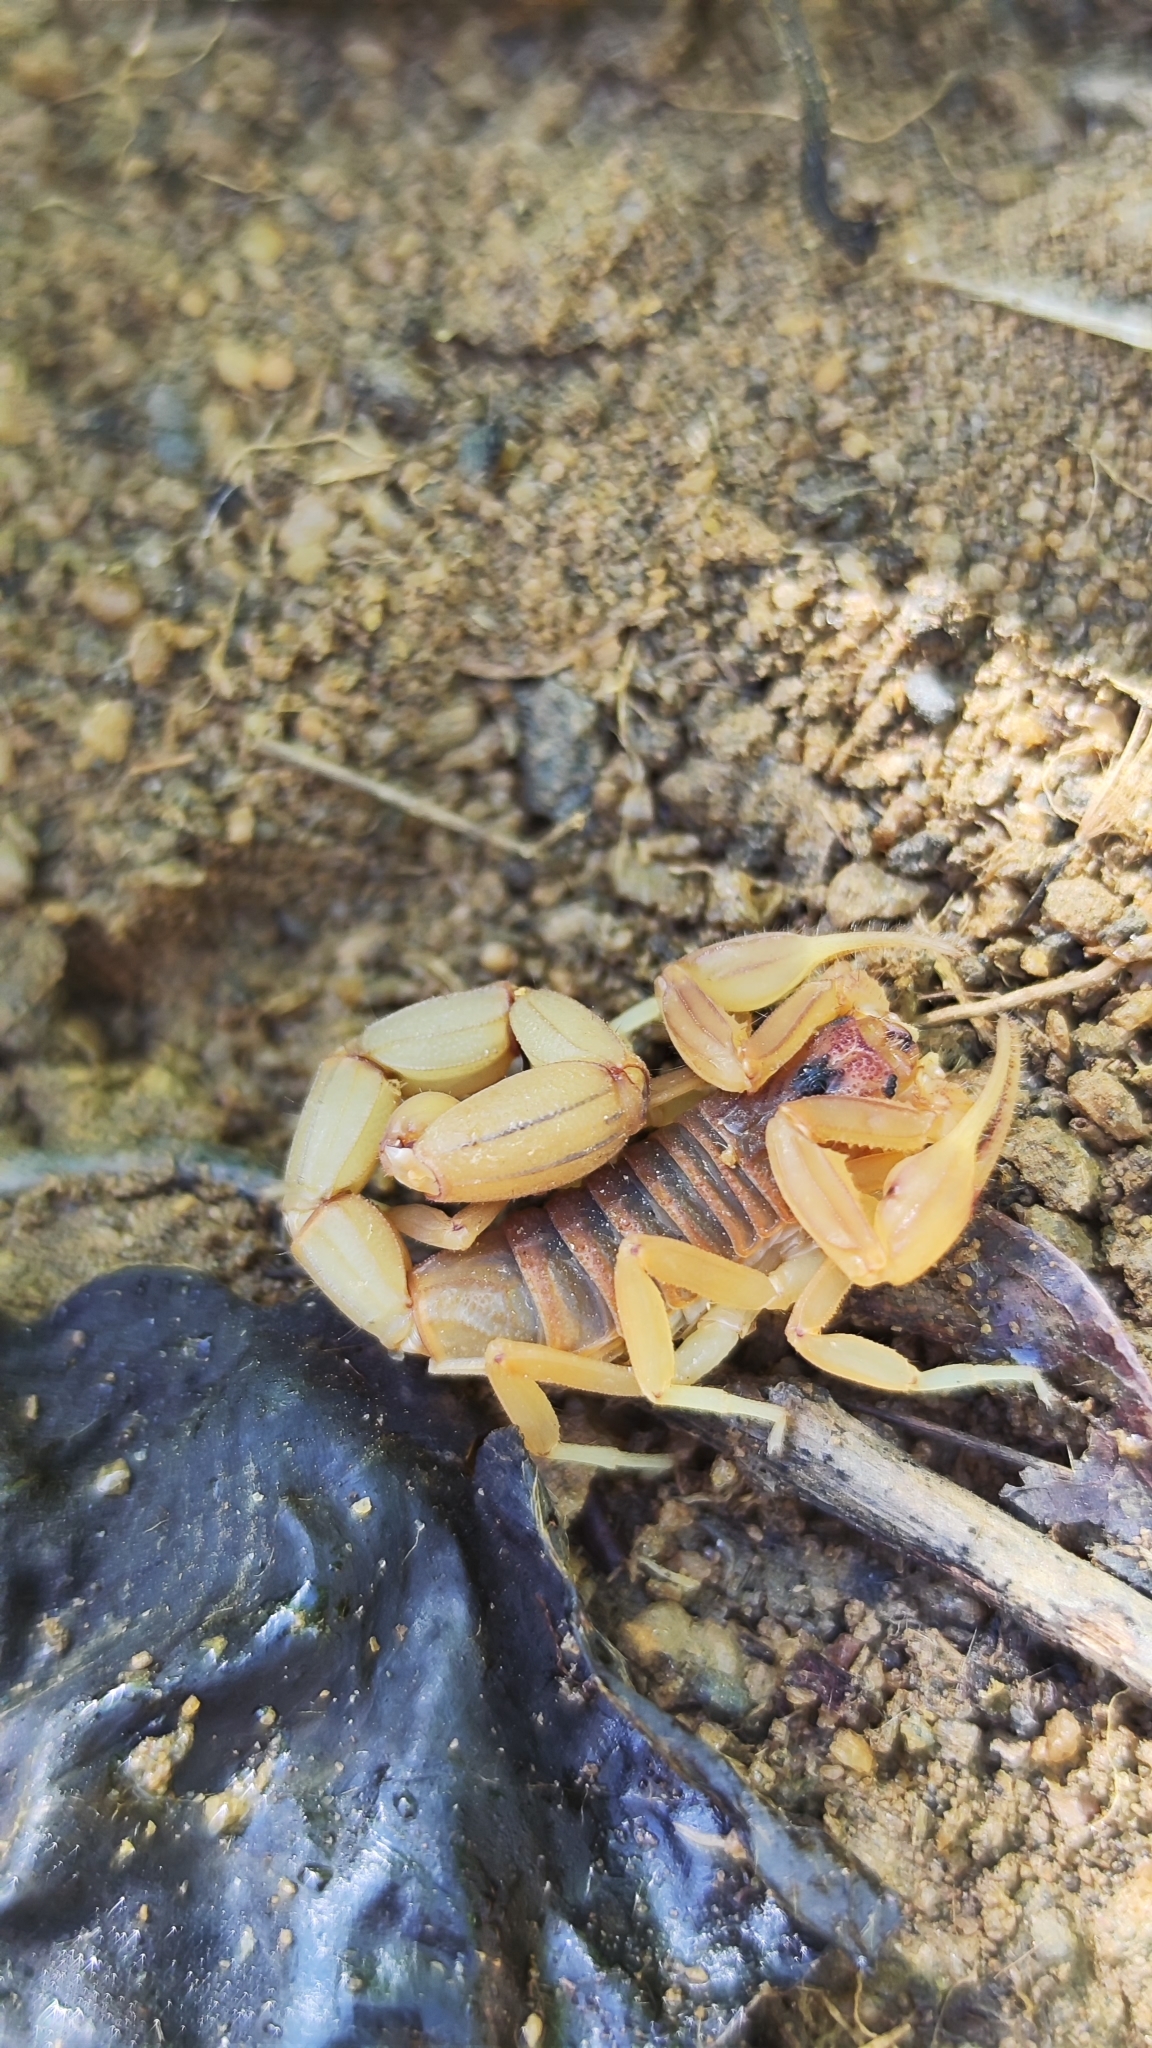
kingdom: Animalia
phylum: Arthropoda
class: Arachnida
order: Scorpiones
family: Buthidae
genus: Jaguajir
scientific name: Jaguajir rochae
